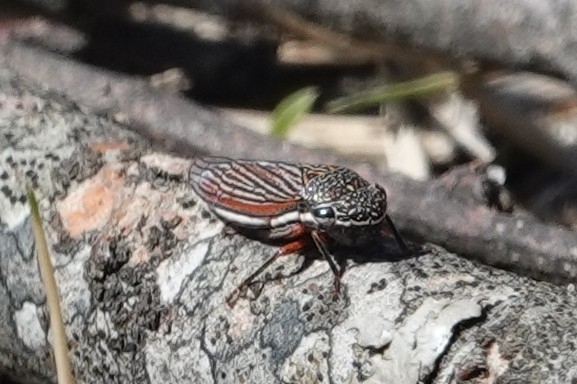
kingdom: Animalia
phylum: Arthropoda
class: Insecta
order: Hemiptera
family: Cicadellidae
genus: Cuerna
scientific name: Cuerna costalis
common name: Lateral-lined sharpshooter
